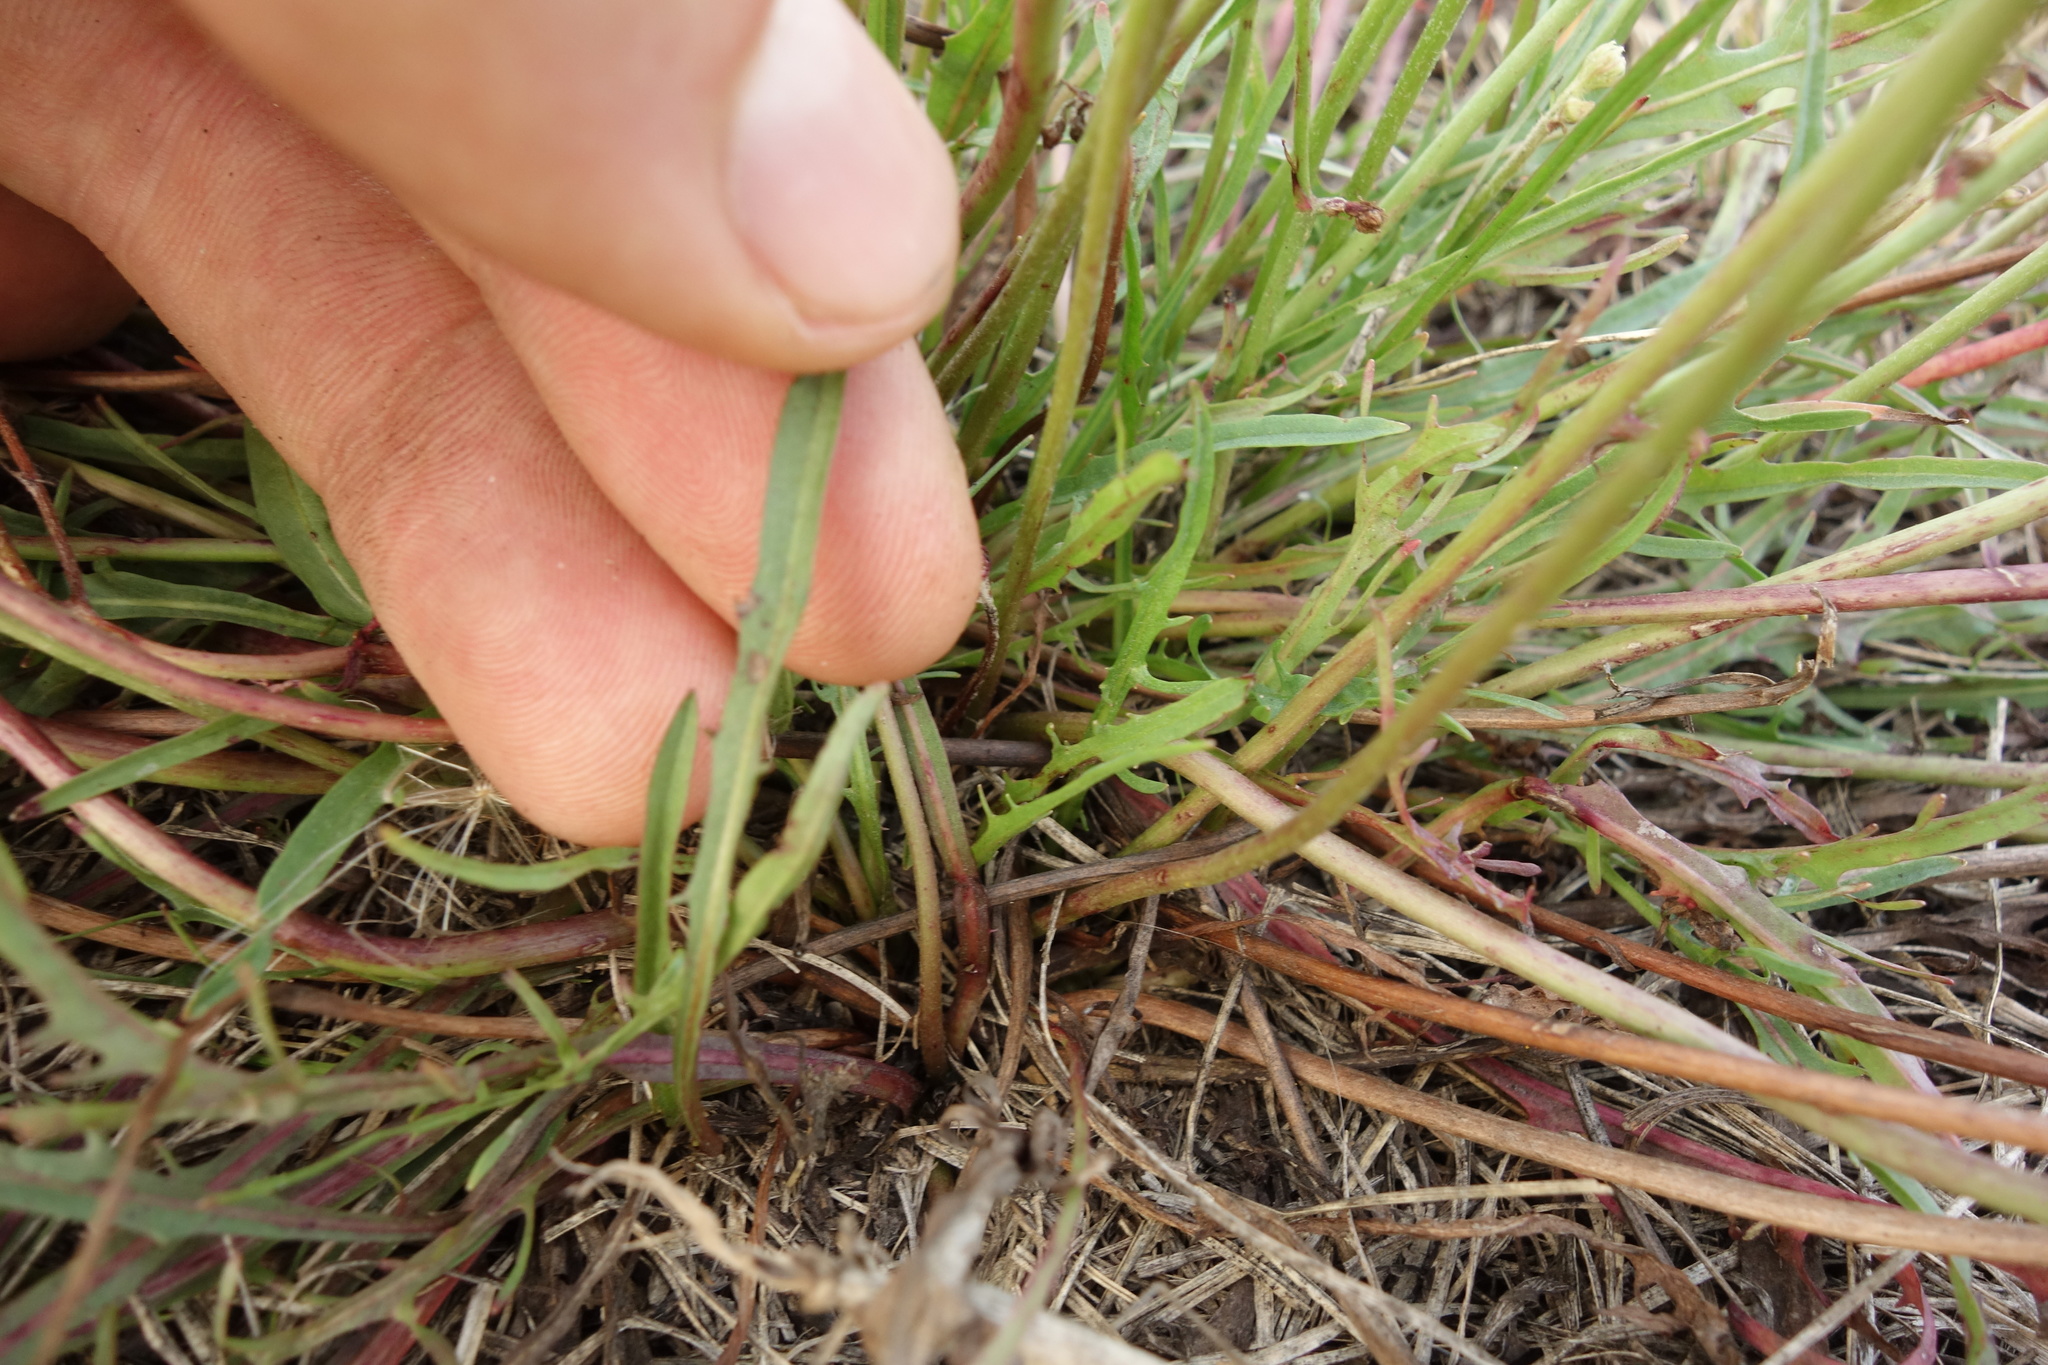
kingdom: Plantae
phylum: Tracheophyta
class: Magnoliopsida
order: Asterales
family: Asteraceae
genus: Scorzoneroides
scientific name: Scorzoneroides autumnalis
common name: Autumn hawkbit
